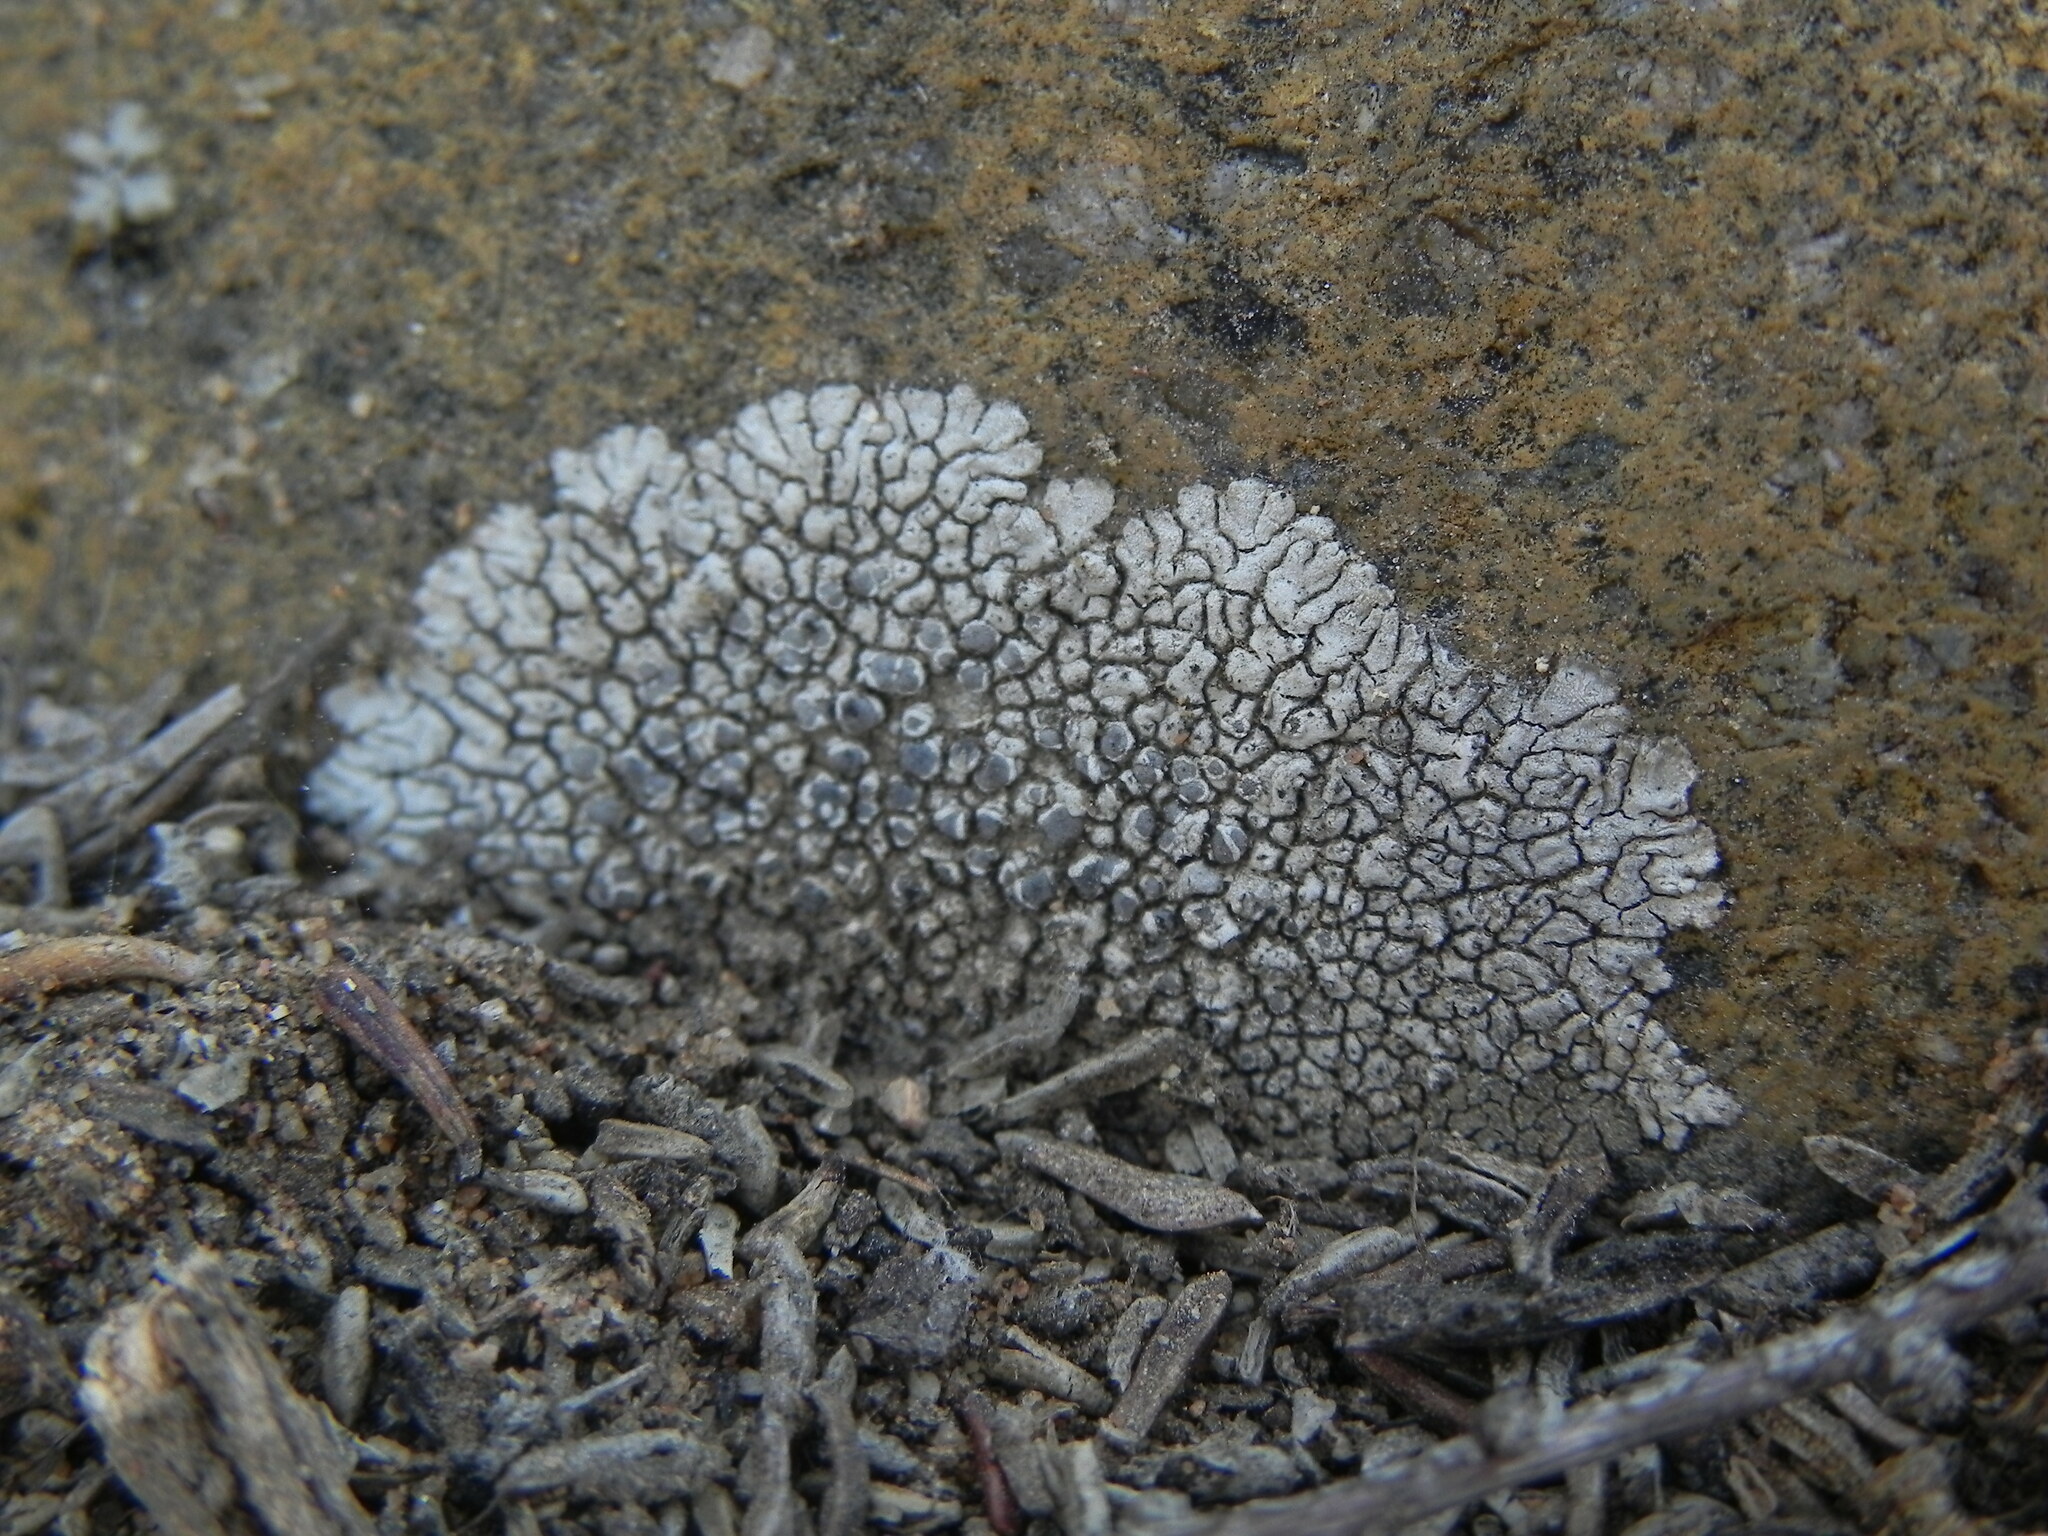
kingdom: Fungi
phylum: Ascomycota
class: Lecanoromycetes
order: Caliciales
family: Caliciaceae
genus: Dimelaena
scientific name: Dimelaena radiata
